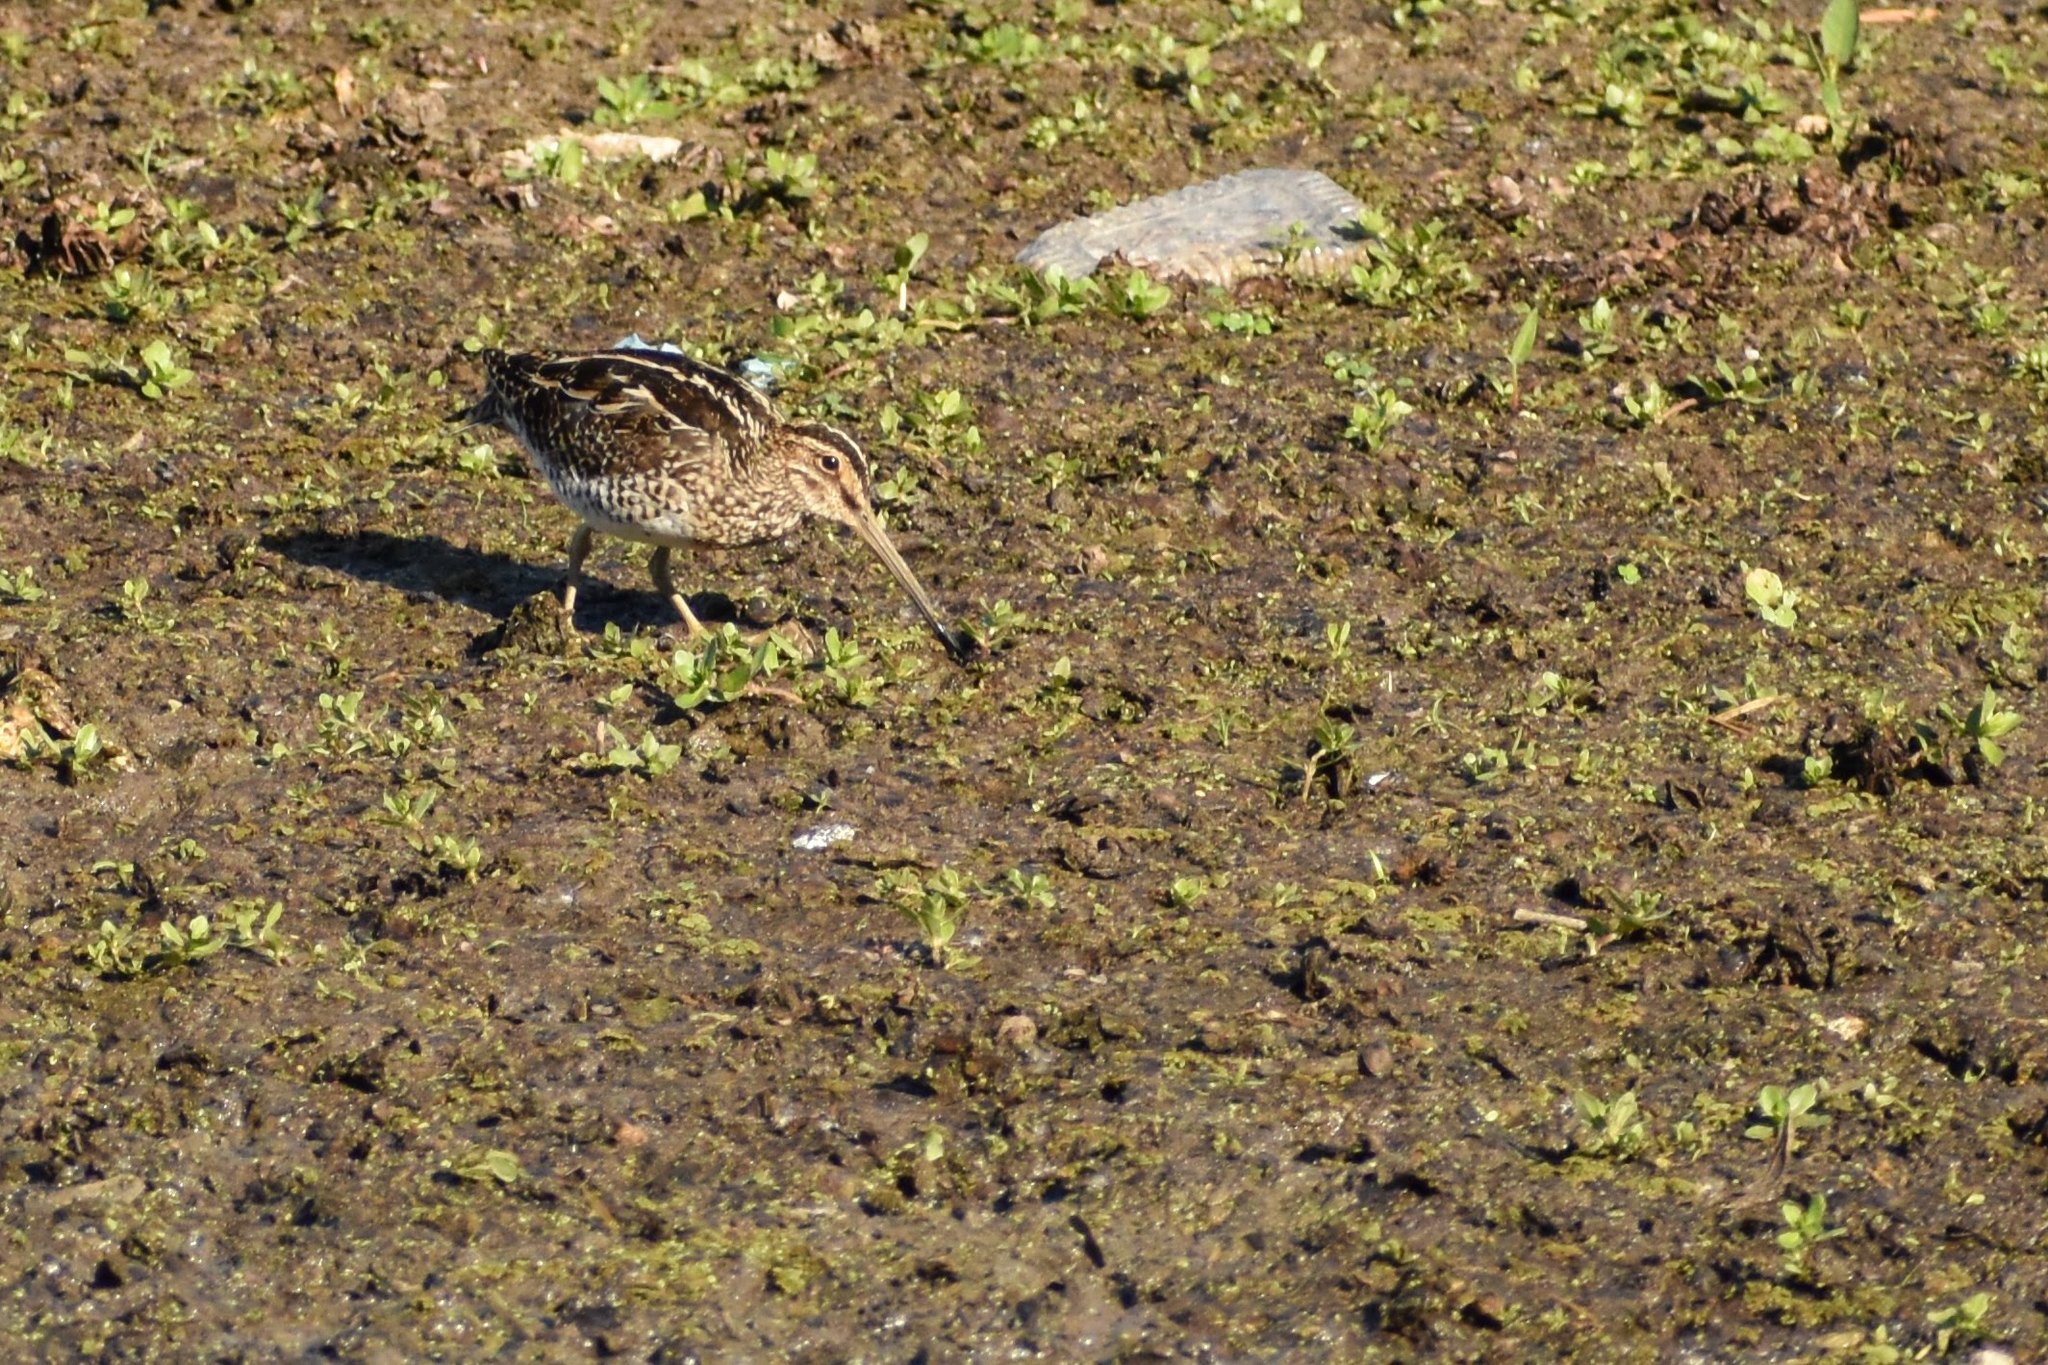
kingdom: Animalia
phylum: Chordata
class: Aves
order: Charadriiformes
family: Scolopacidae
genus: Gallinago
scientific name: Gallinago paraguaiae
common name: South american snipe
